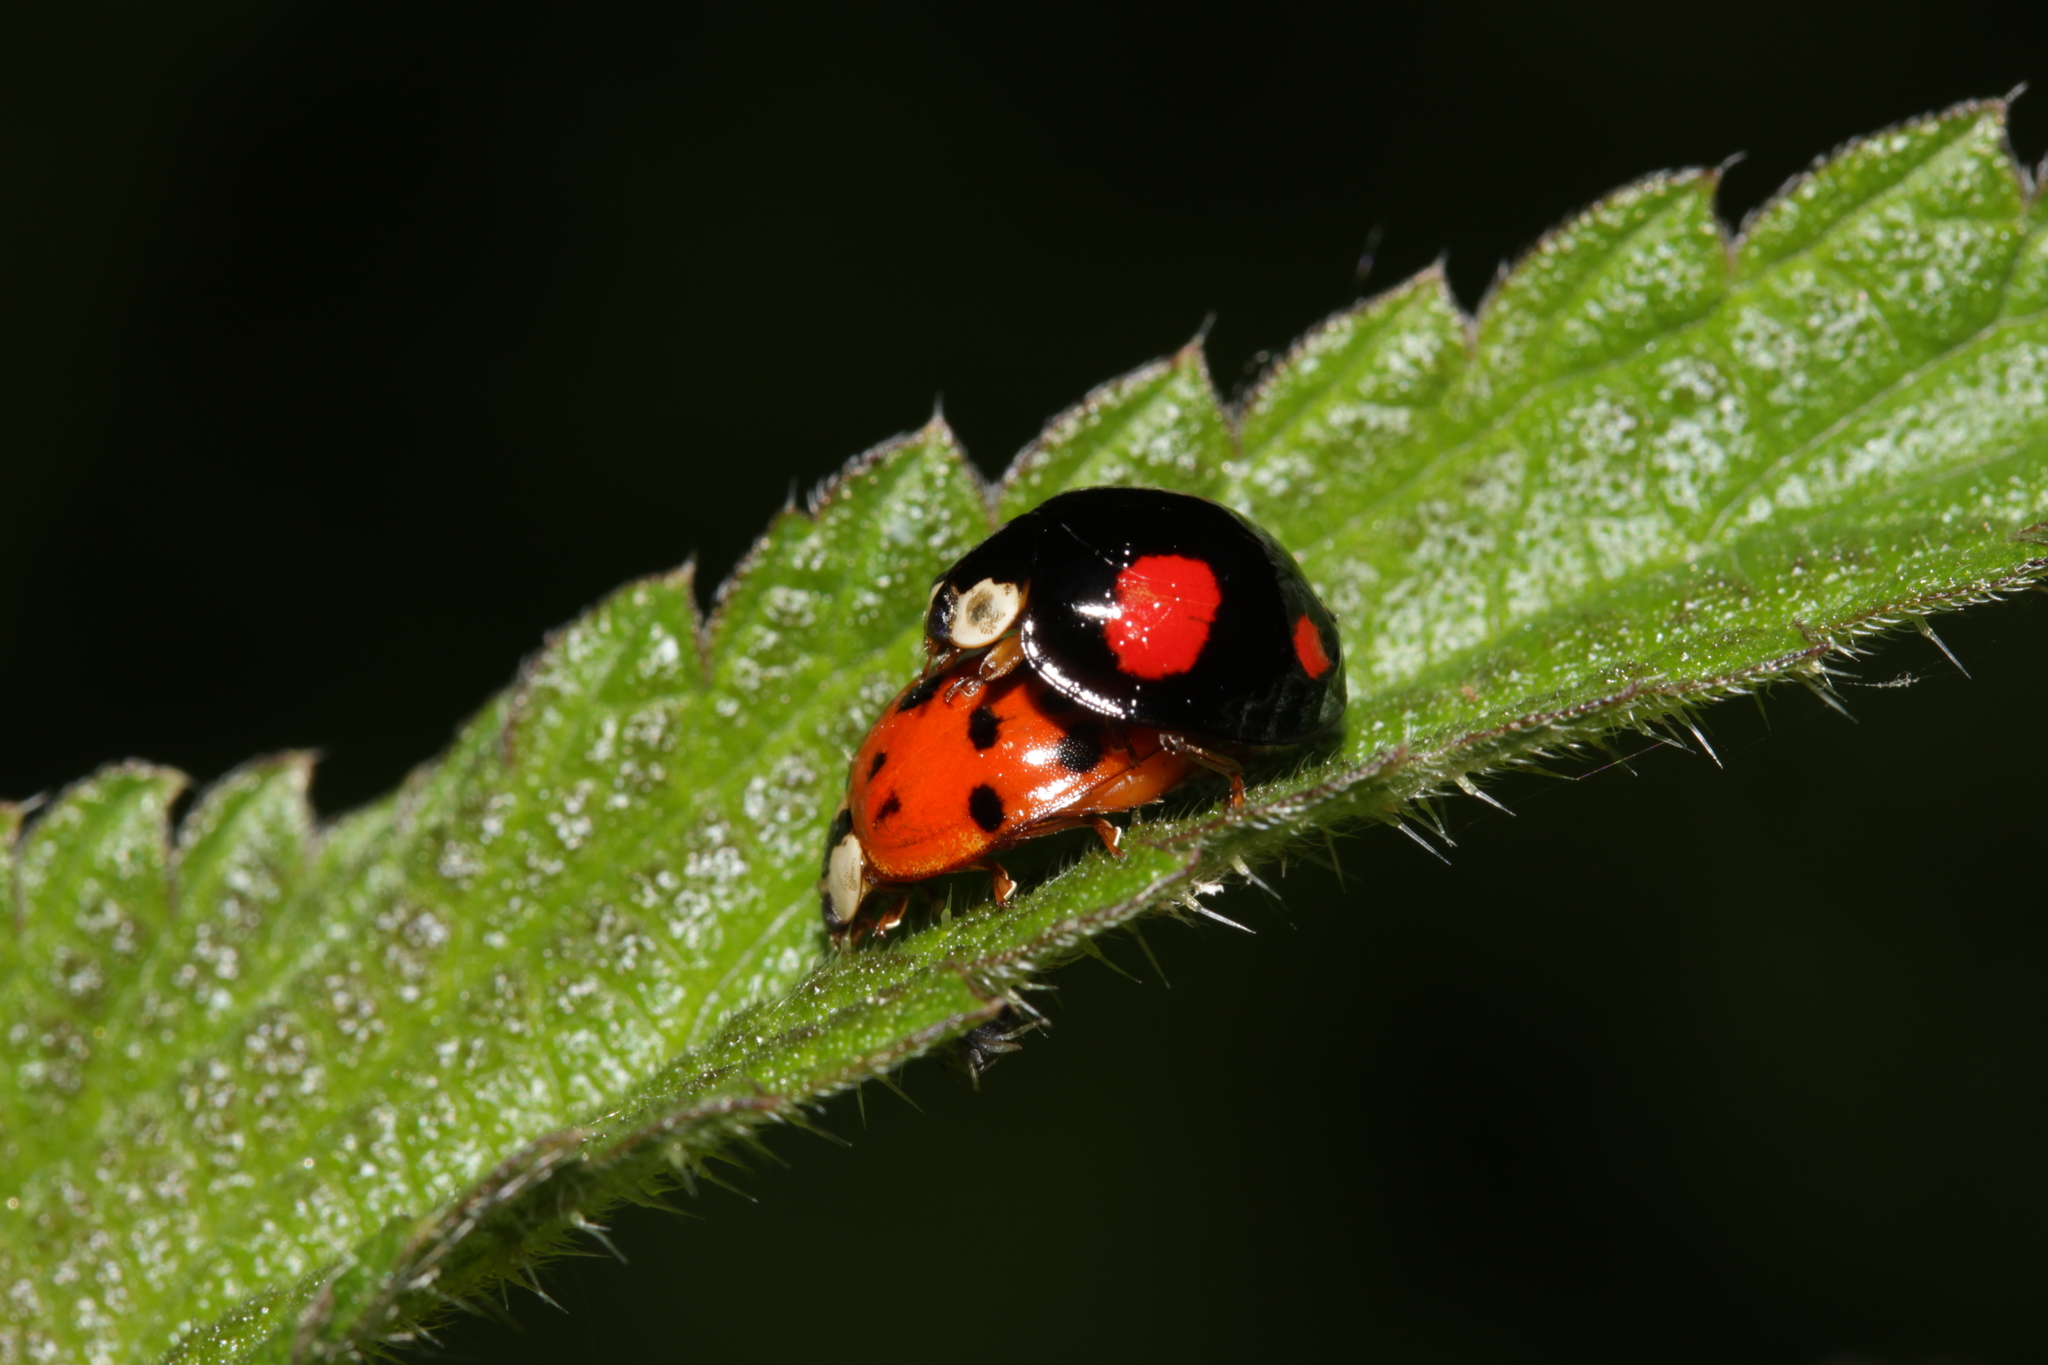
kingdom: Animalia
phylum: Arthropoda
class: Insecta
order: Coleoptera
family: Coccinellidae
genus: Harmonia
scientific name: Harmonia axyridis
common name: Harlequin ladybird
